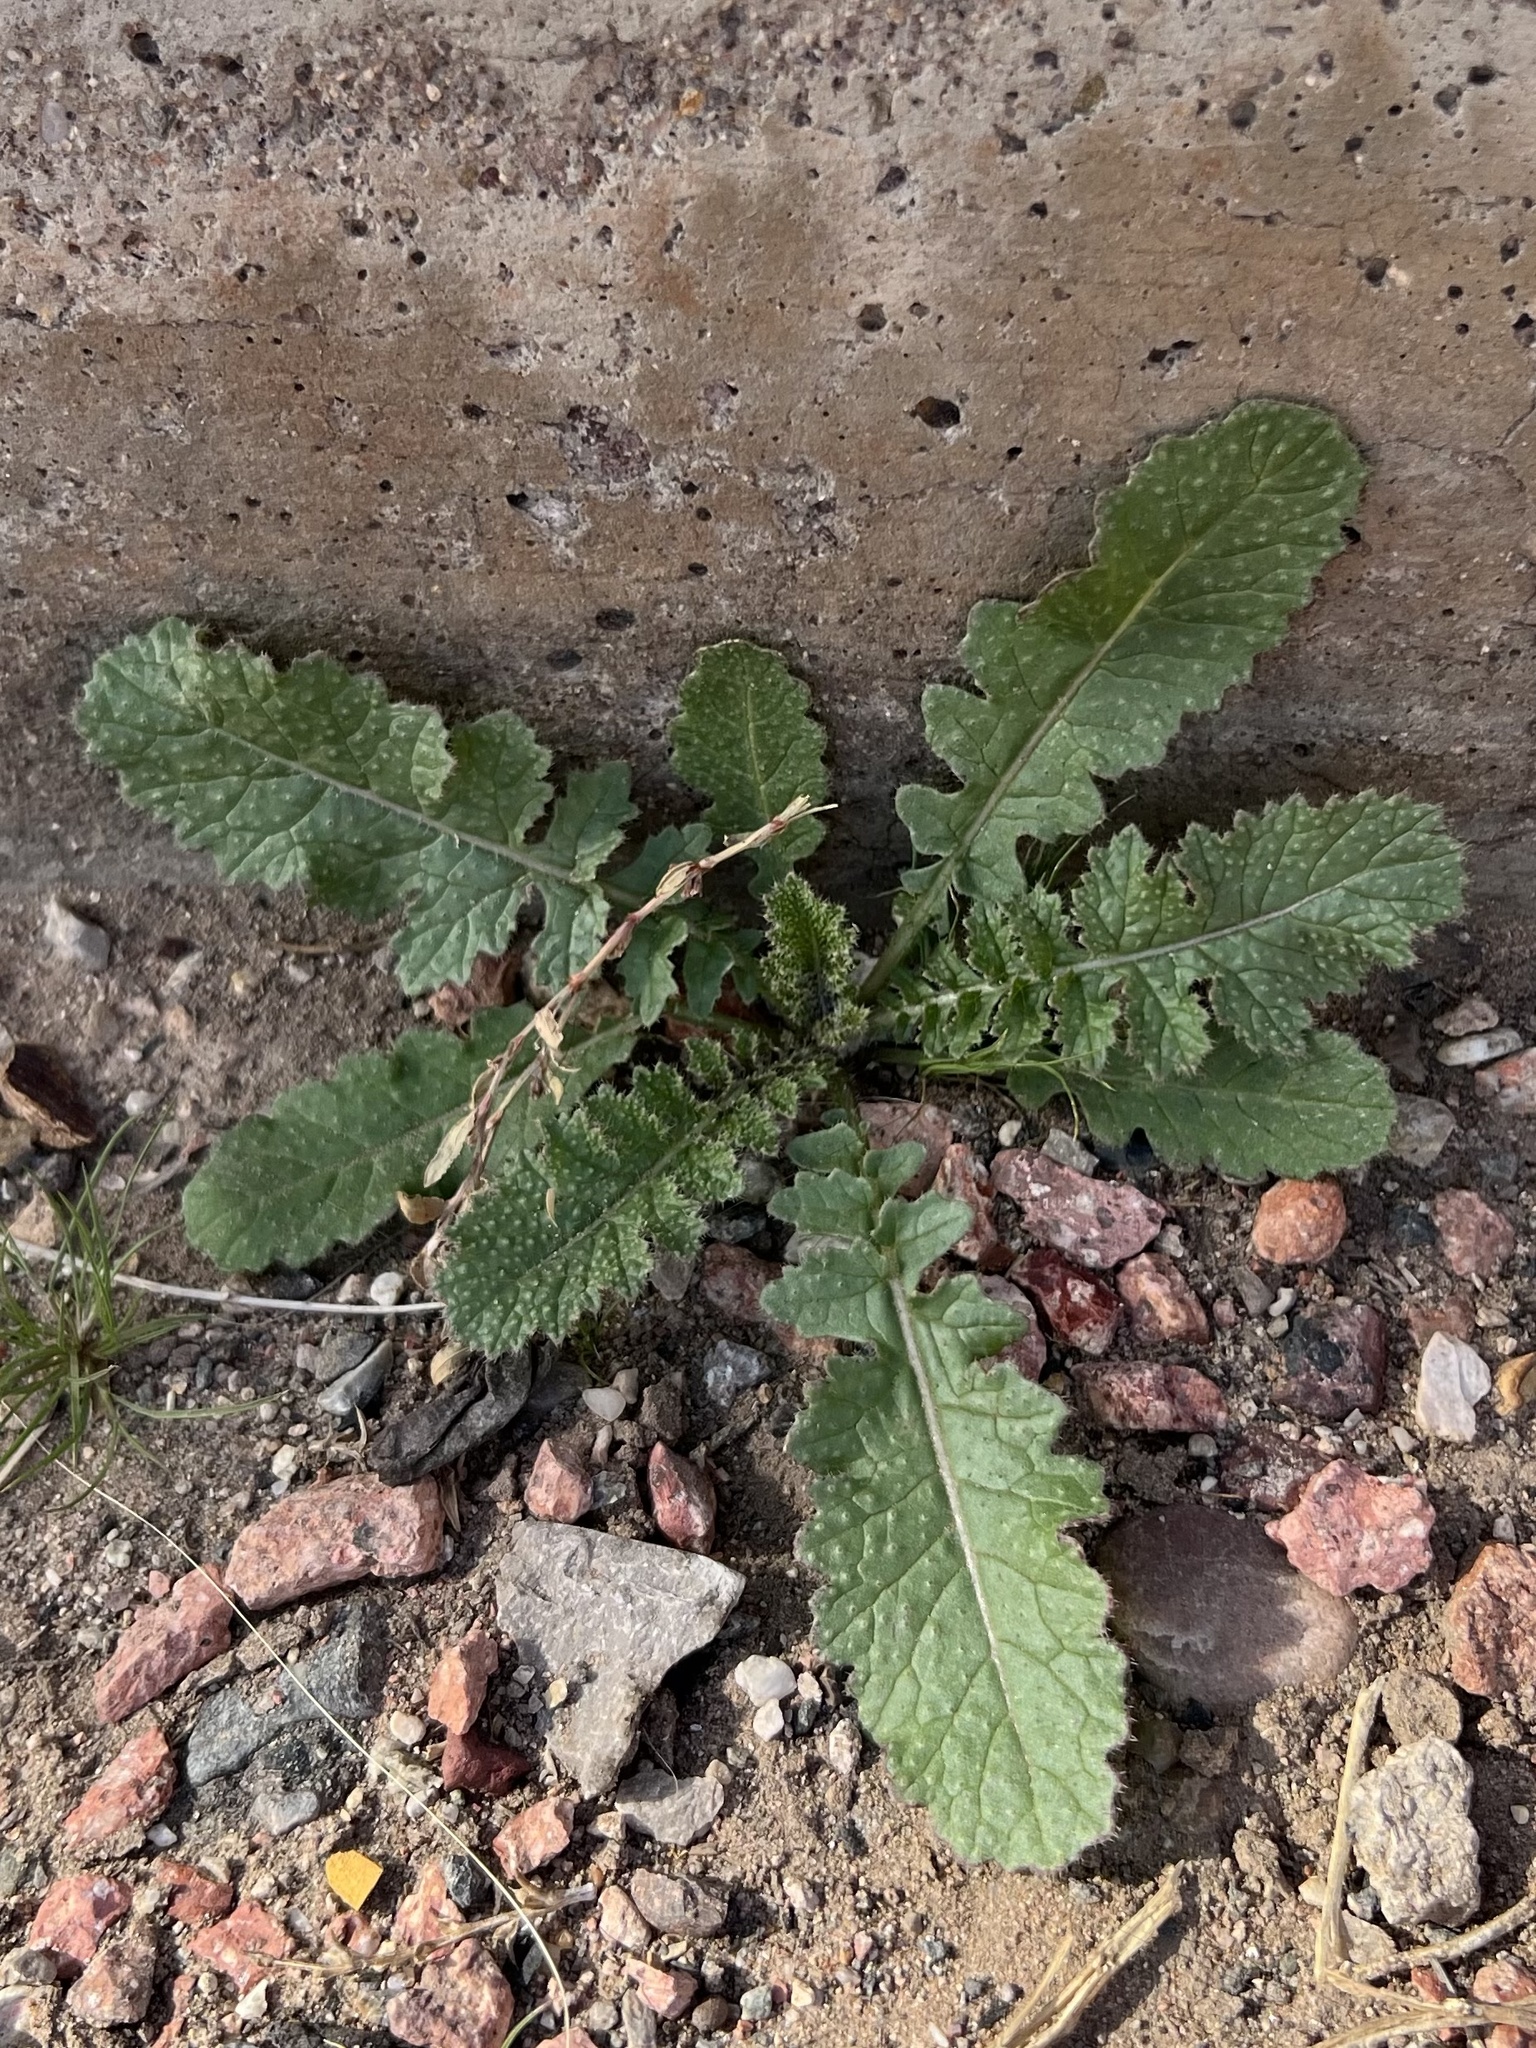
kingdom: Plantae
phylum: Tracheophyta
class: Magnoliopsida
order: Brassicales
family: Brassicaceae
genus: Brassica
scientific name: Brassica tournefortii
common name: Pale cabbage
